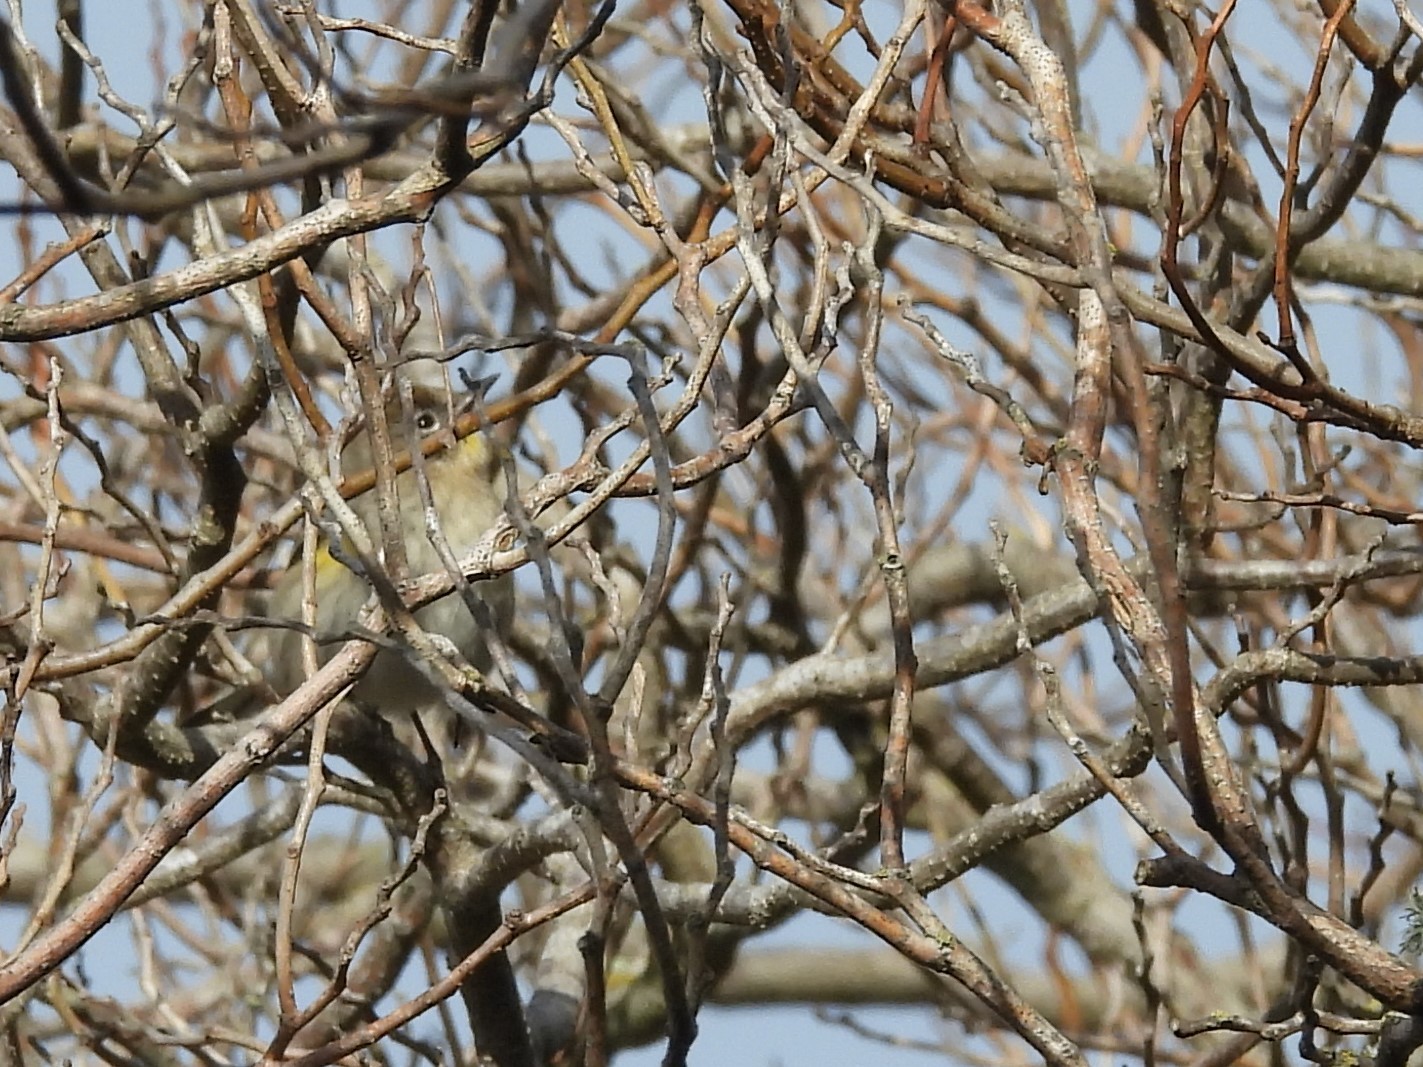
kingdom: Animalia
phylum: Chordata
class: Aves
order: Passeriformes
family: Parulidae
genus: Setophaga
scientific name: Setophaga coronata
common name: Myrtle warbler
